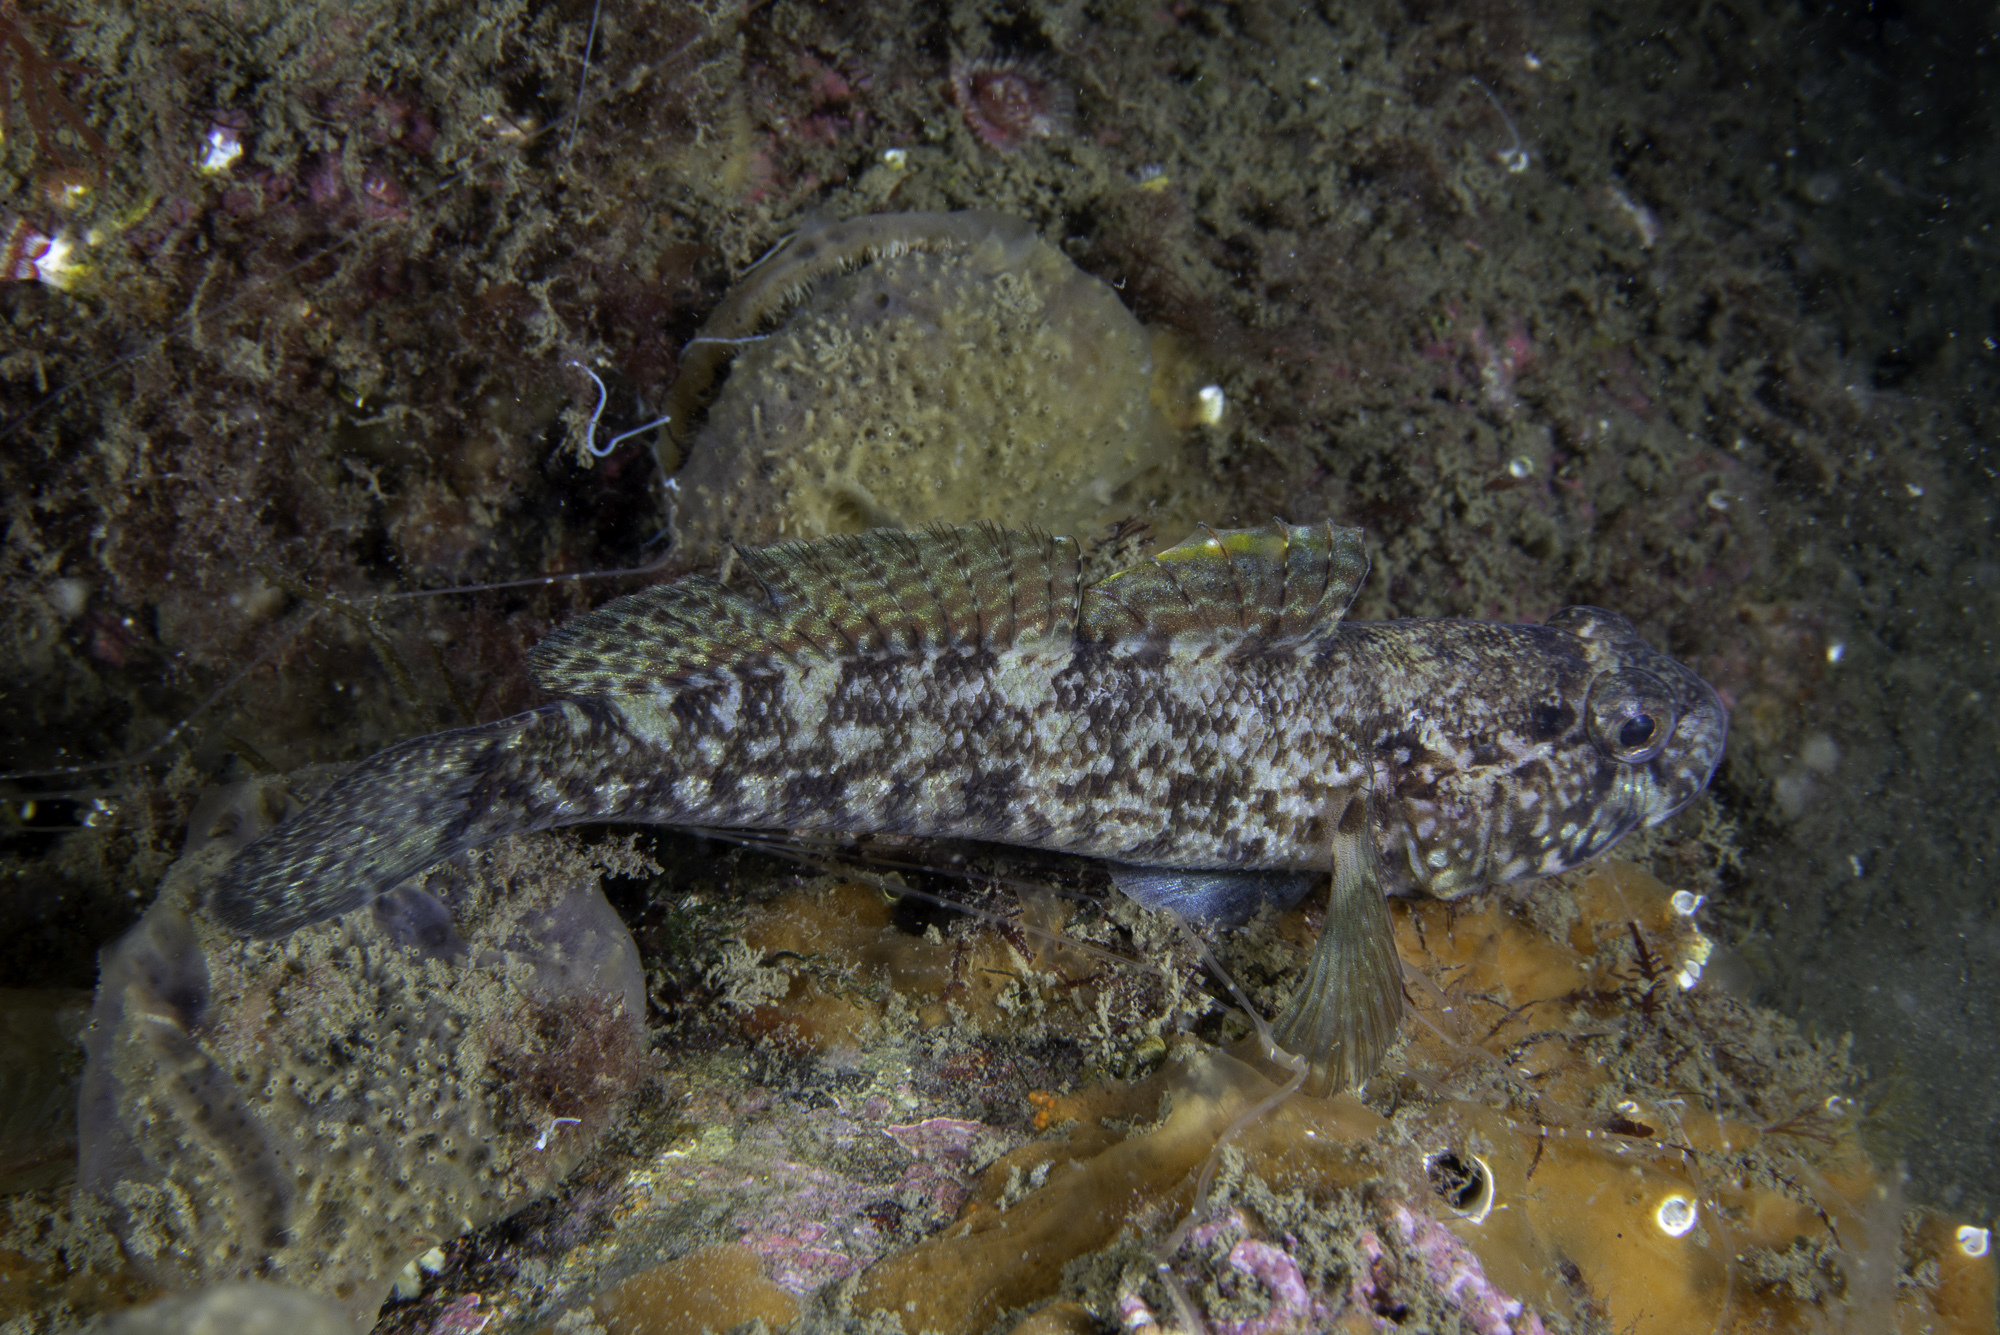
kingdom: Animalia
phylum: Chordata
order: Perciformes
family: Gobiidae
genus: Gobius
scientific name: Gobius paganellus
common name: Rock goby
